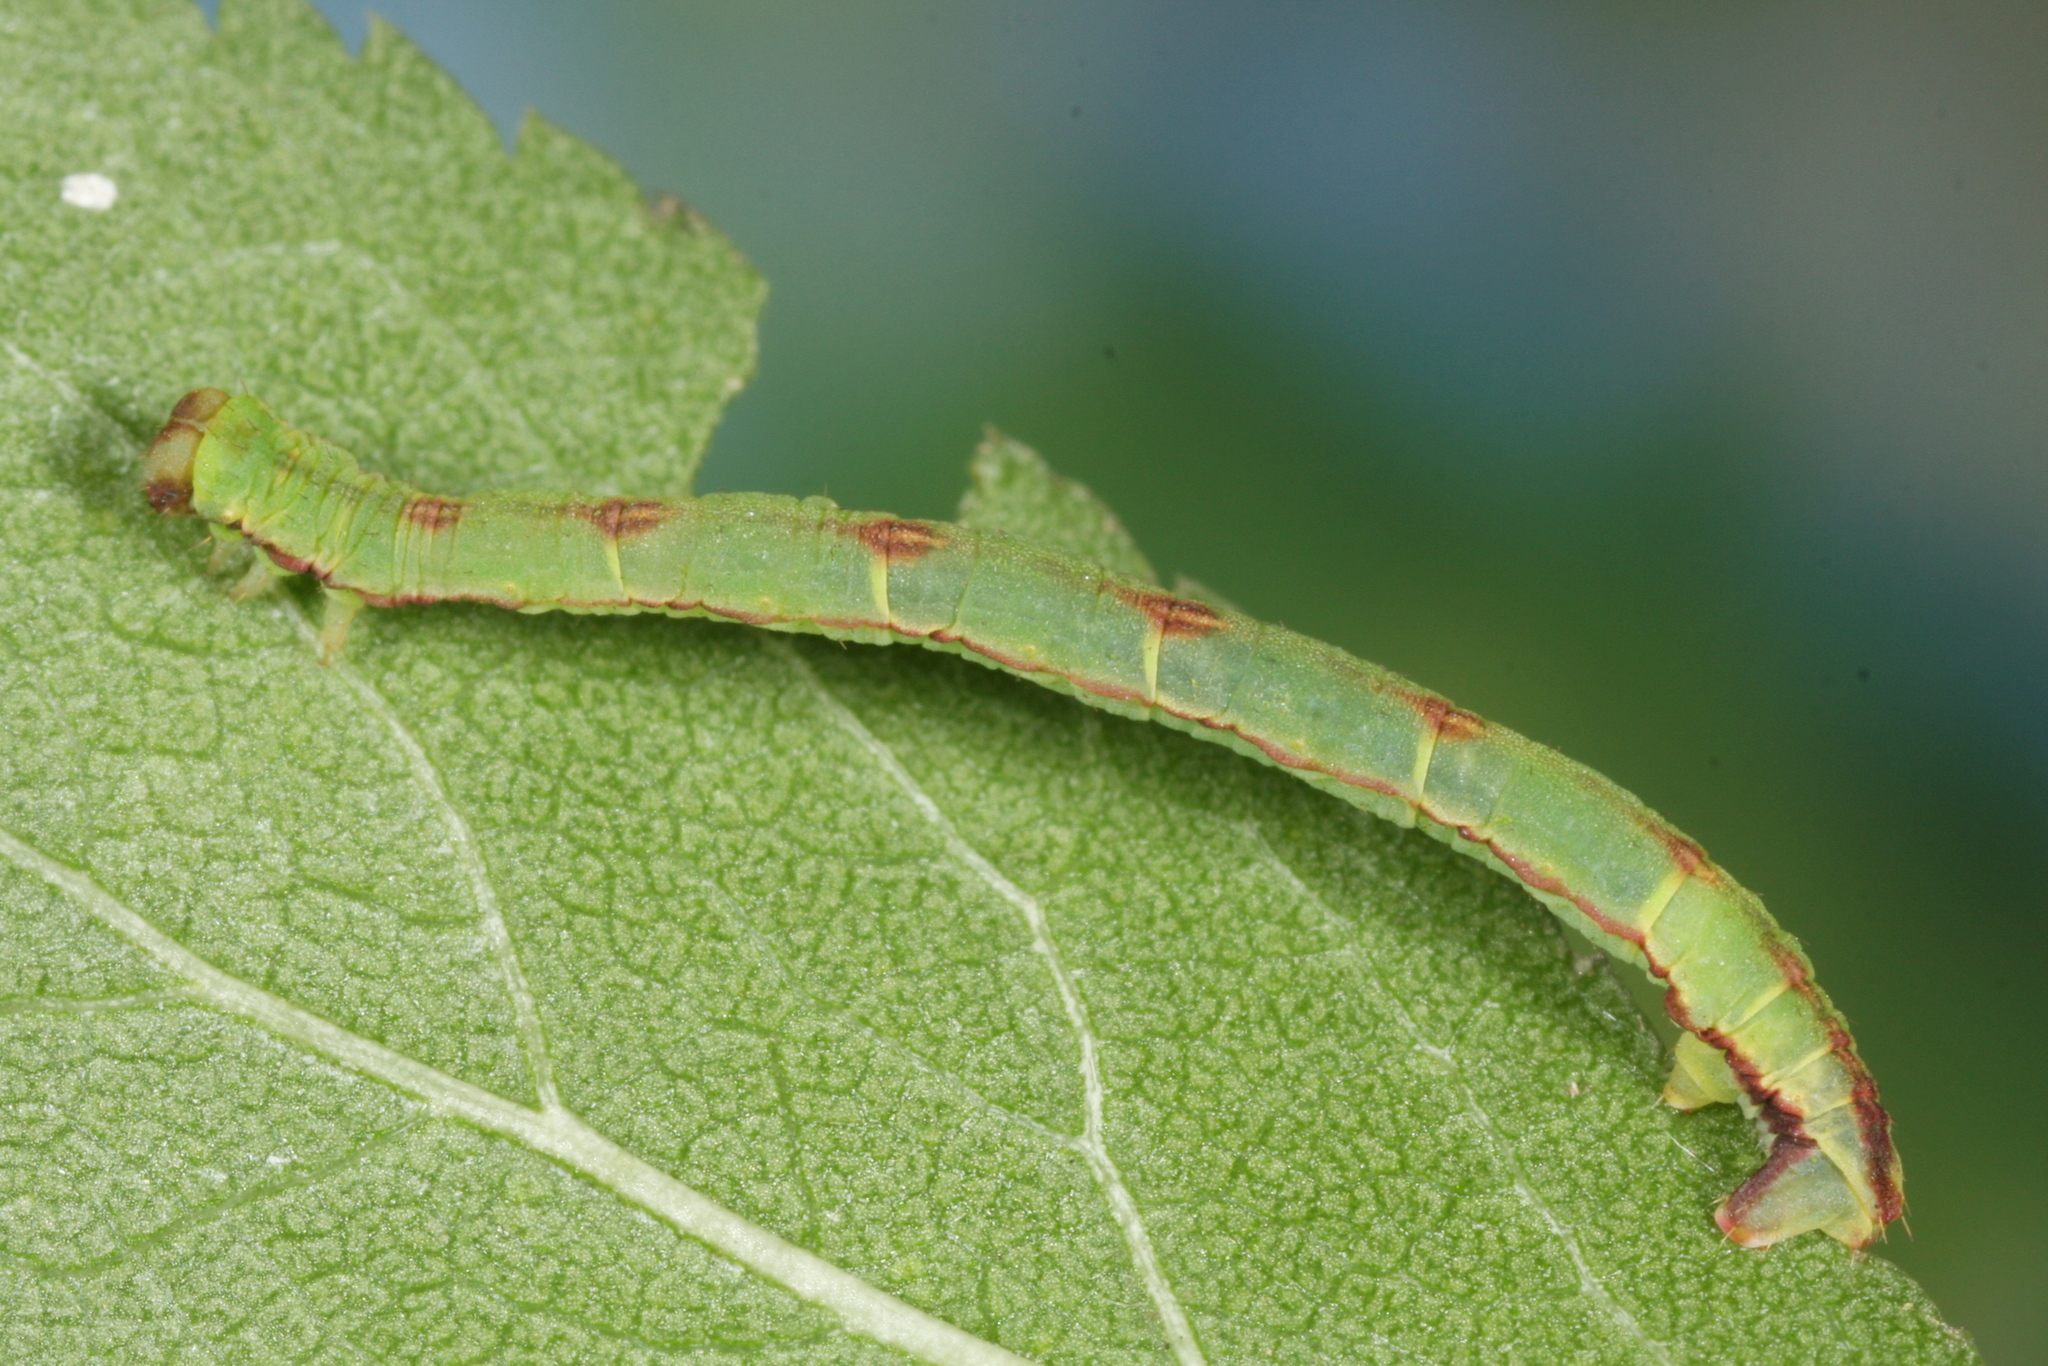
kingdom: Animalia
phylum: Arthropoda
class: Insecta
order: Lepidoptera
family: Geometridae
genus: Eupithecia
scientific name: Eupithecia exiguata
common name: Mottled pug
